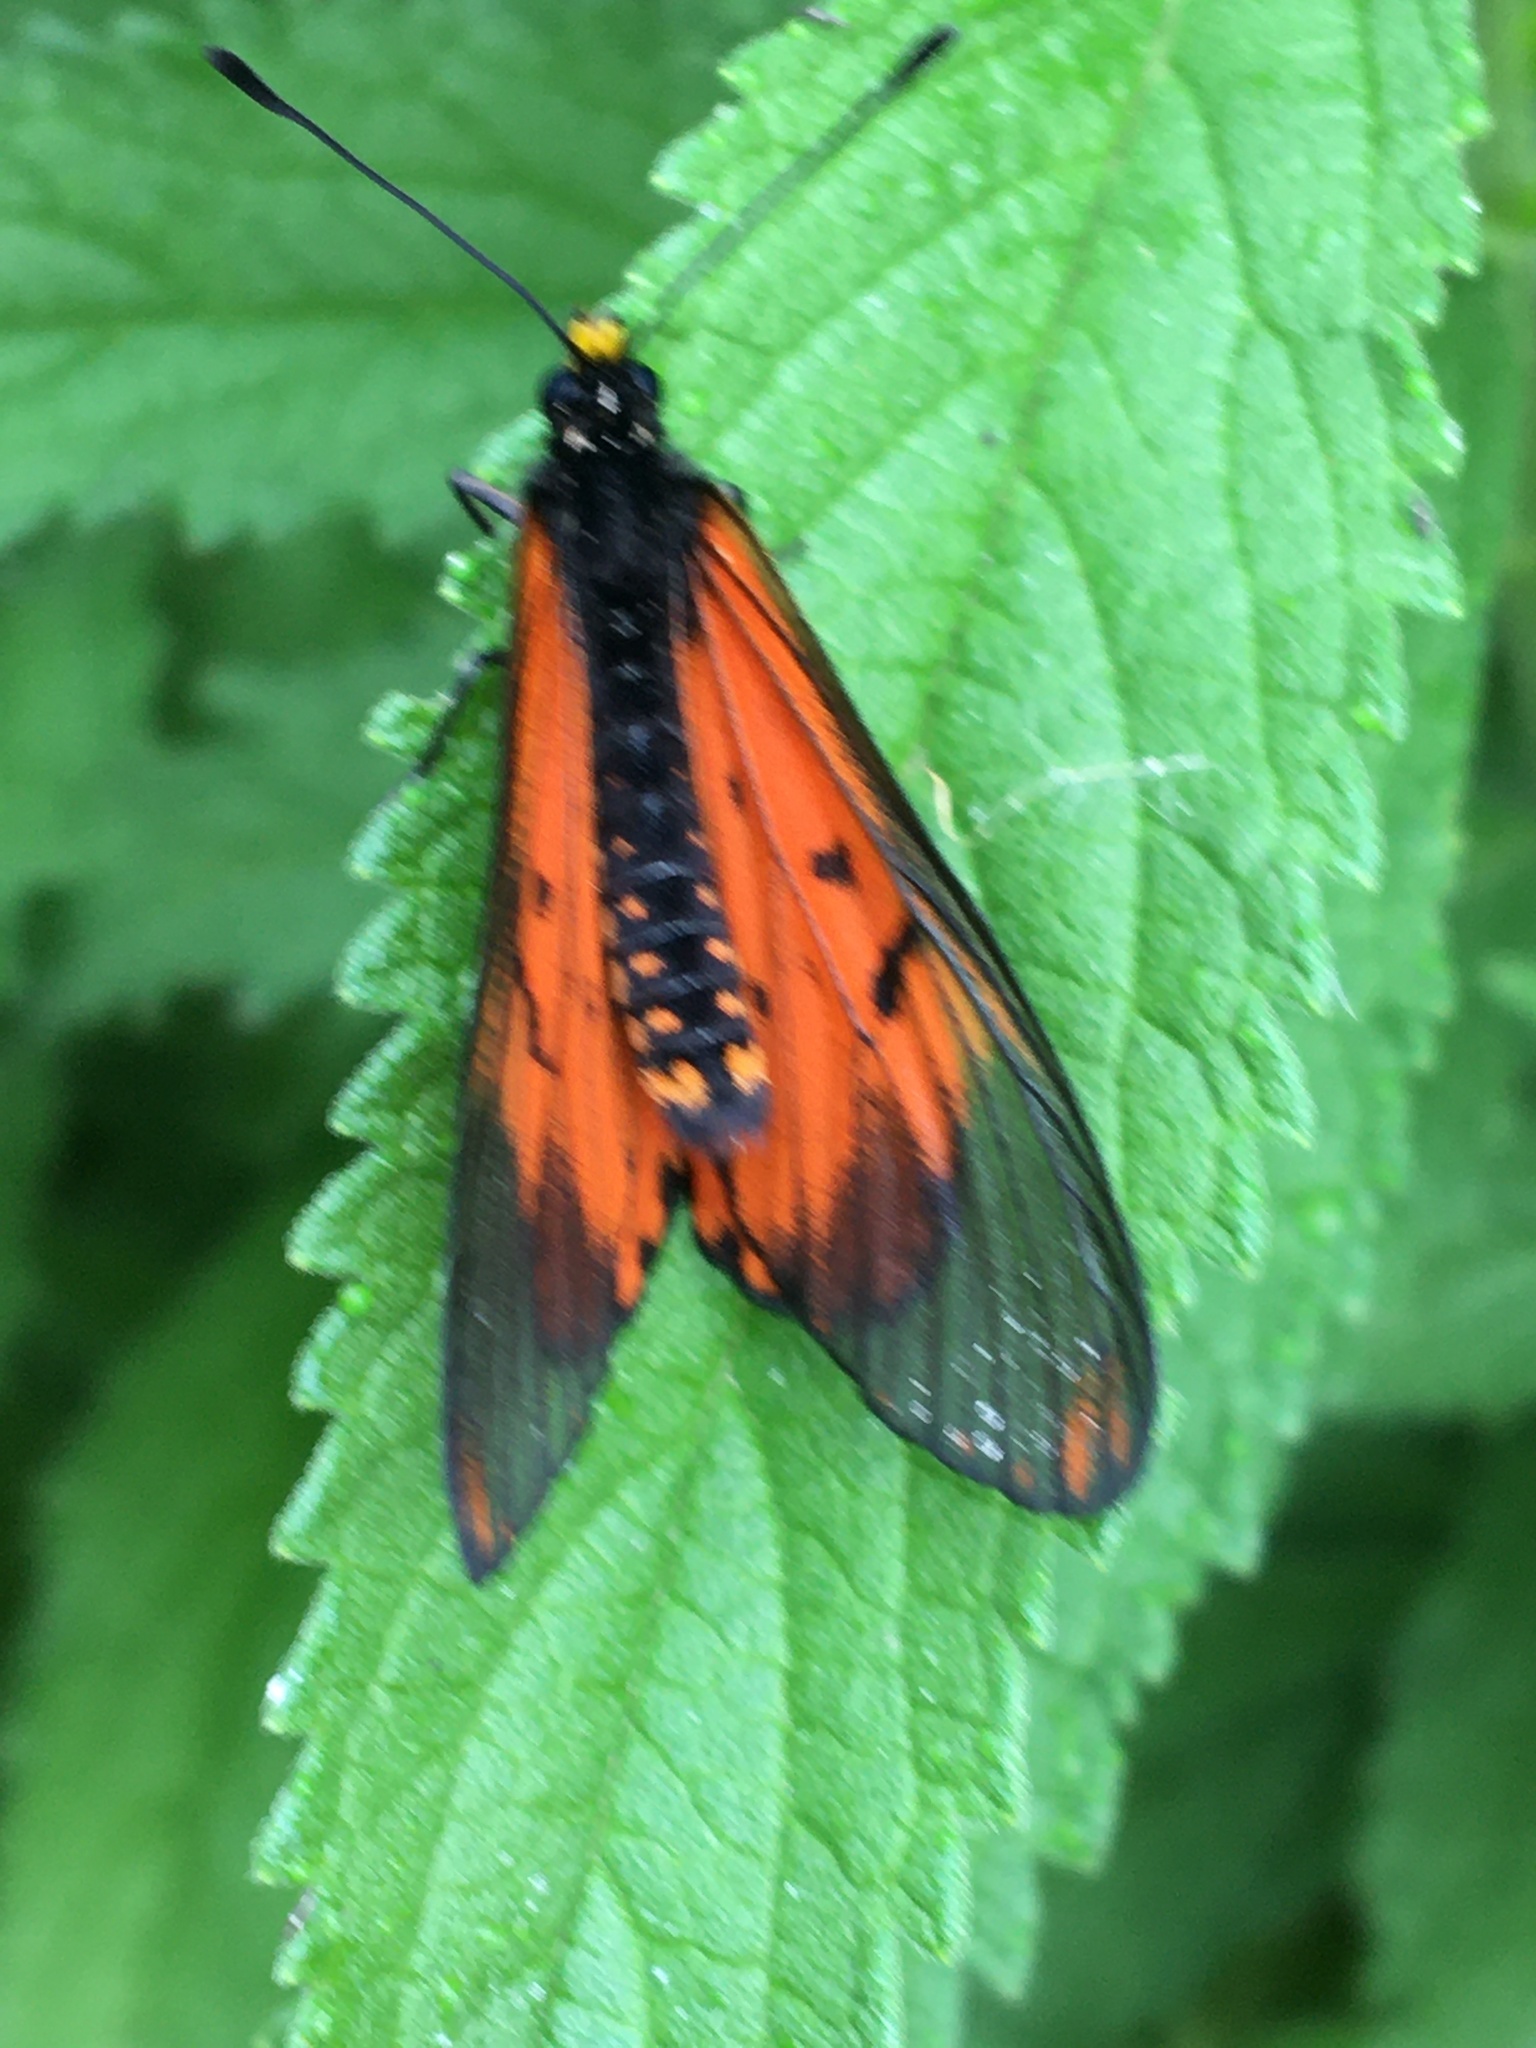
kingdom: Animalia
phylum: Arthropoda
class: Insecta
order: Lepidoptera
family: Nymphalidae
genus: Acraea
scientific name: Acraea horta
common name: Garden acraea
